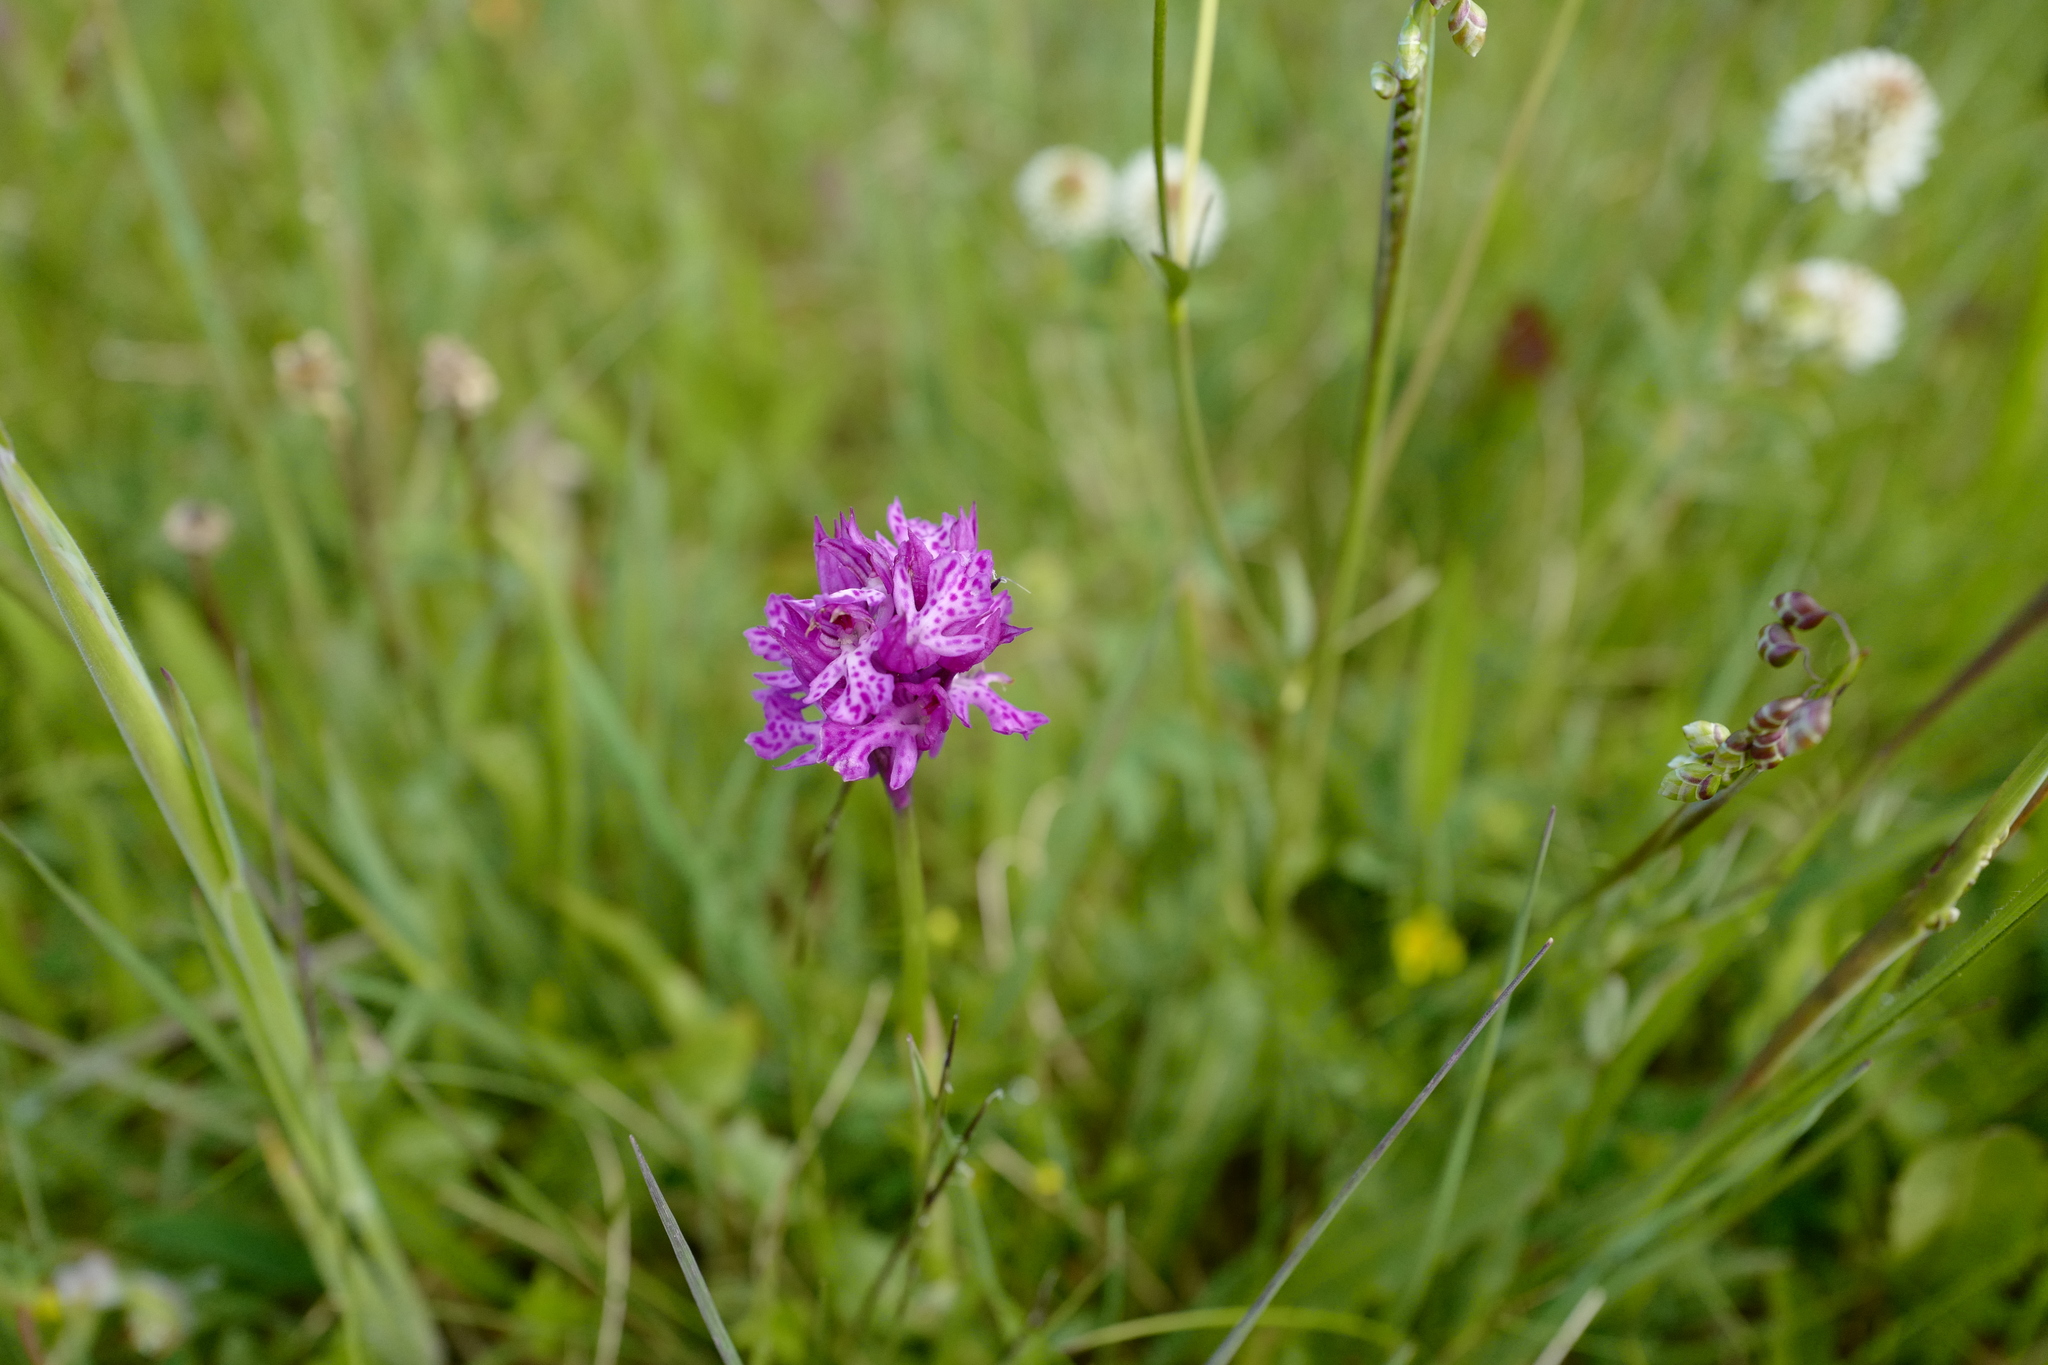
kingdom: Plantae
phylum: Tracheophyta
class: Liliopsida
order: Asparagales
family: Orchidaceae
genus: Neotinea
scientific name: Neotinea tridentata
